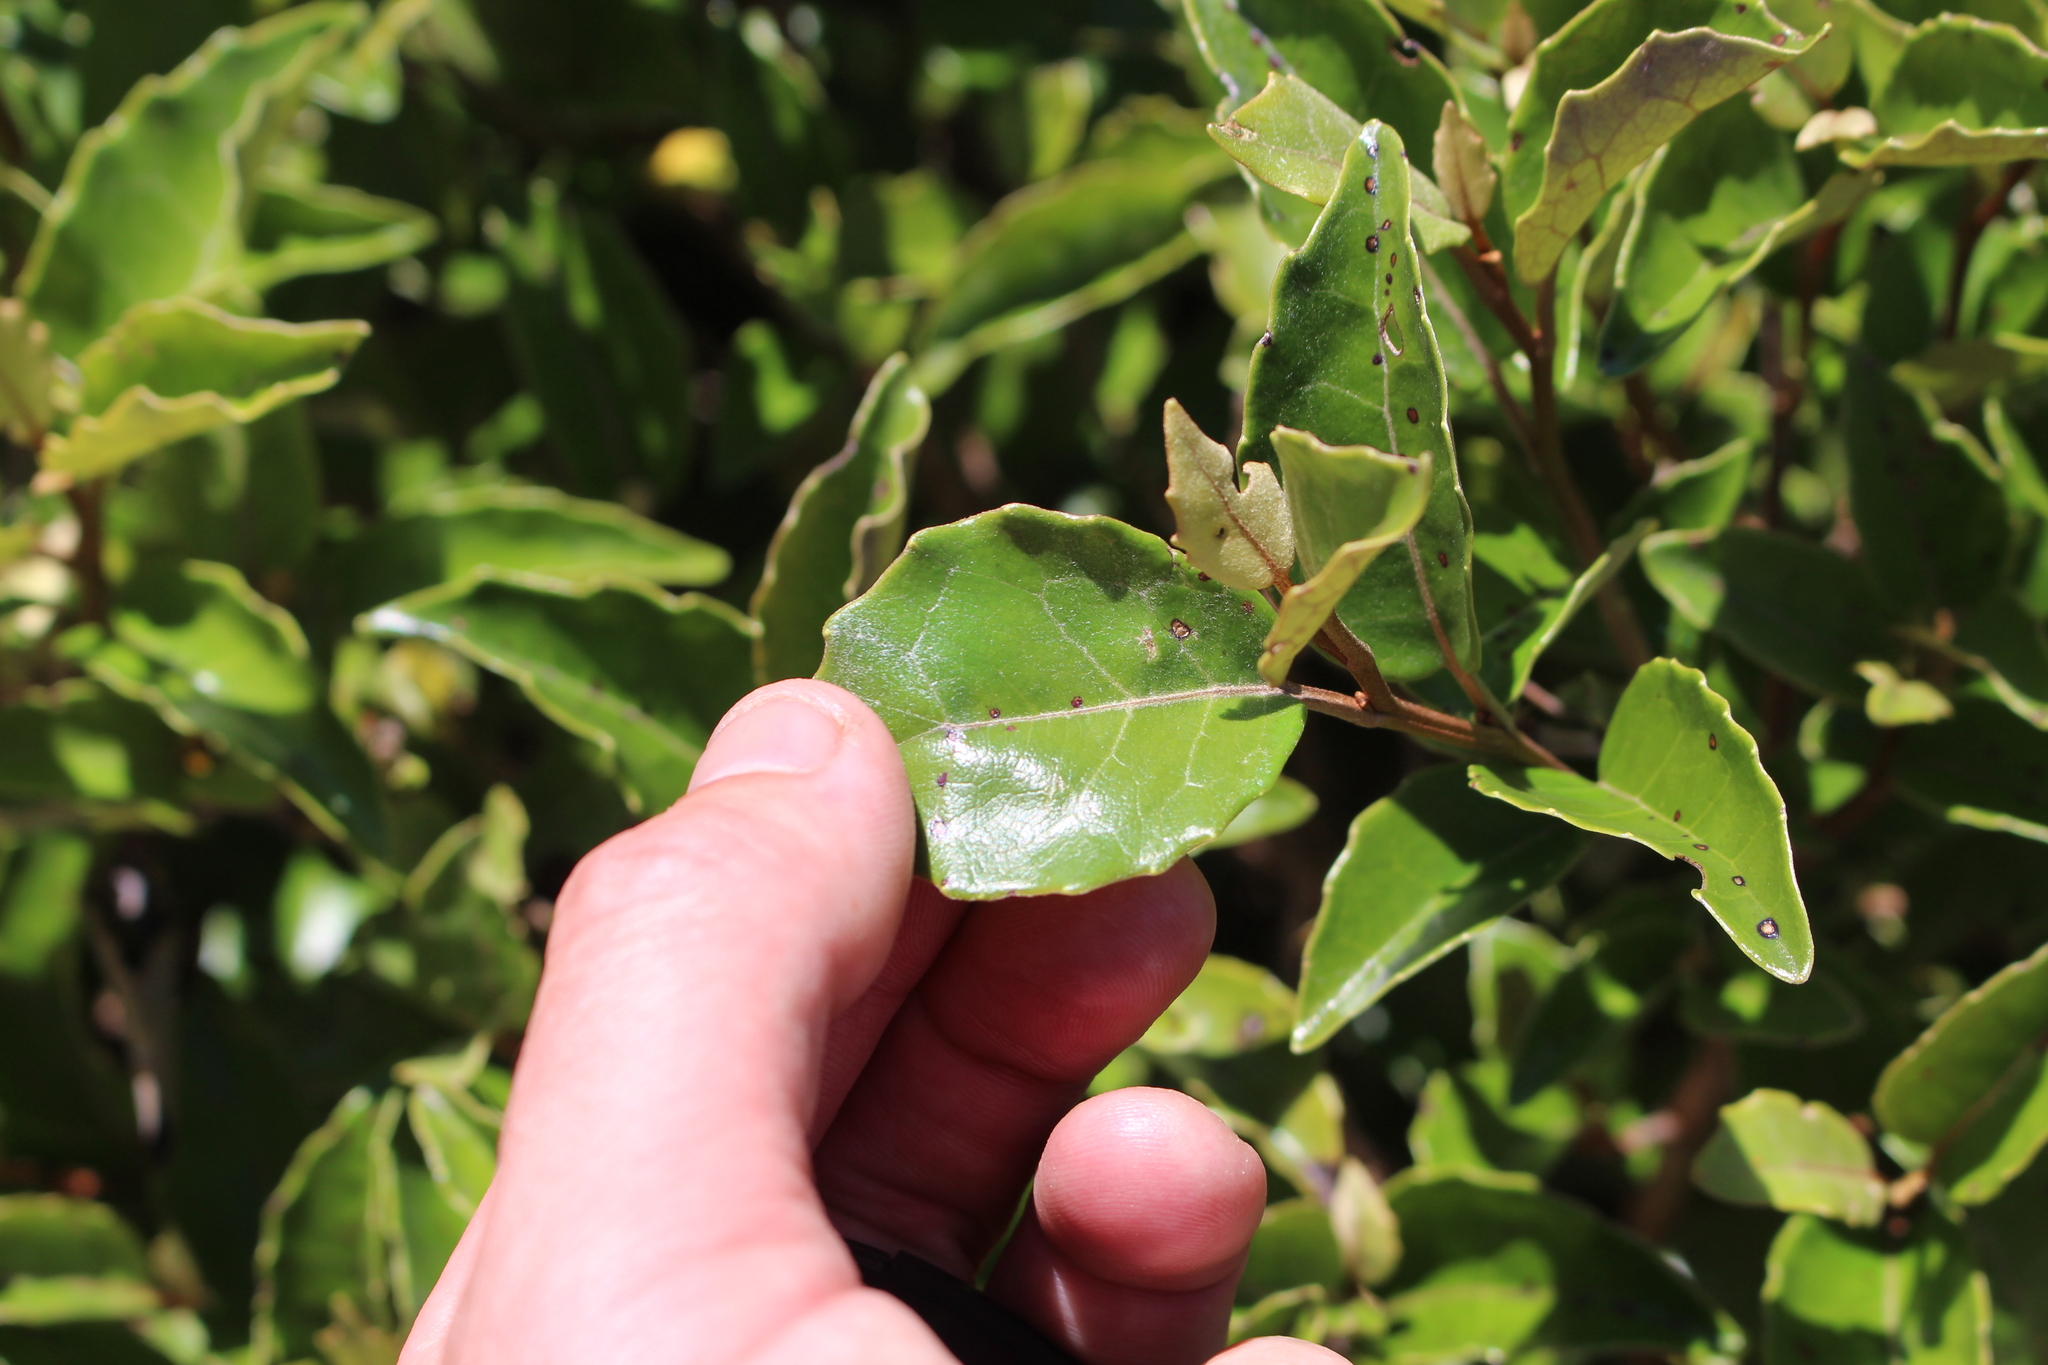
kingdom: Plantae
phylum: Tracheophyta
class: Magnoliopsida
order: Asterales
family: Asteraceae
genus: Olearia
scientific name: Olearia arborescens
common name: Glossy tree daisy
